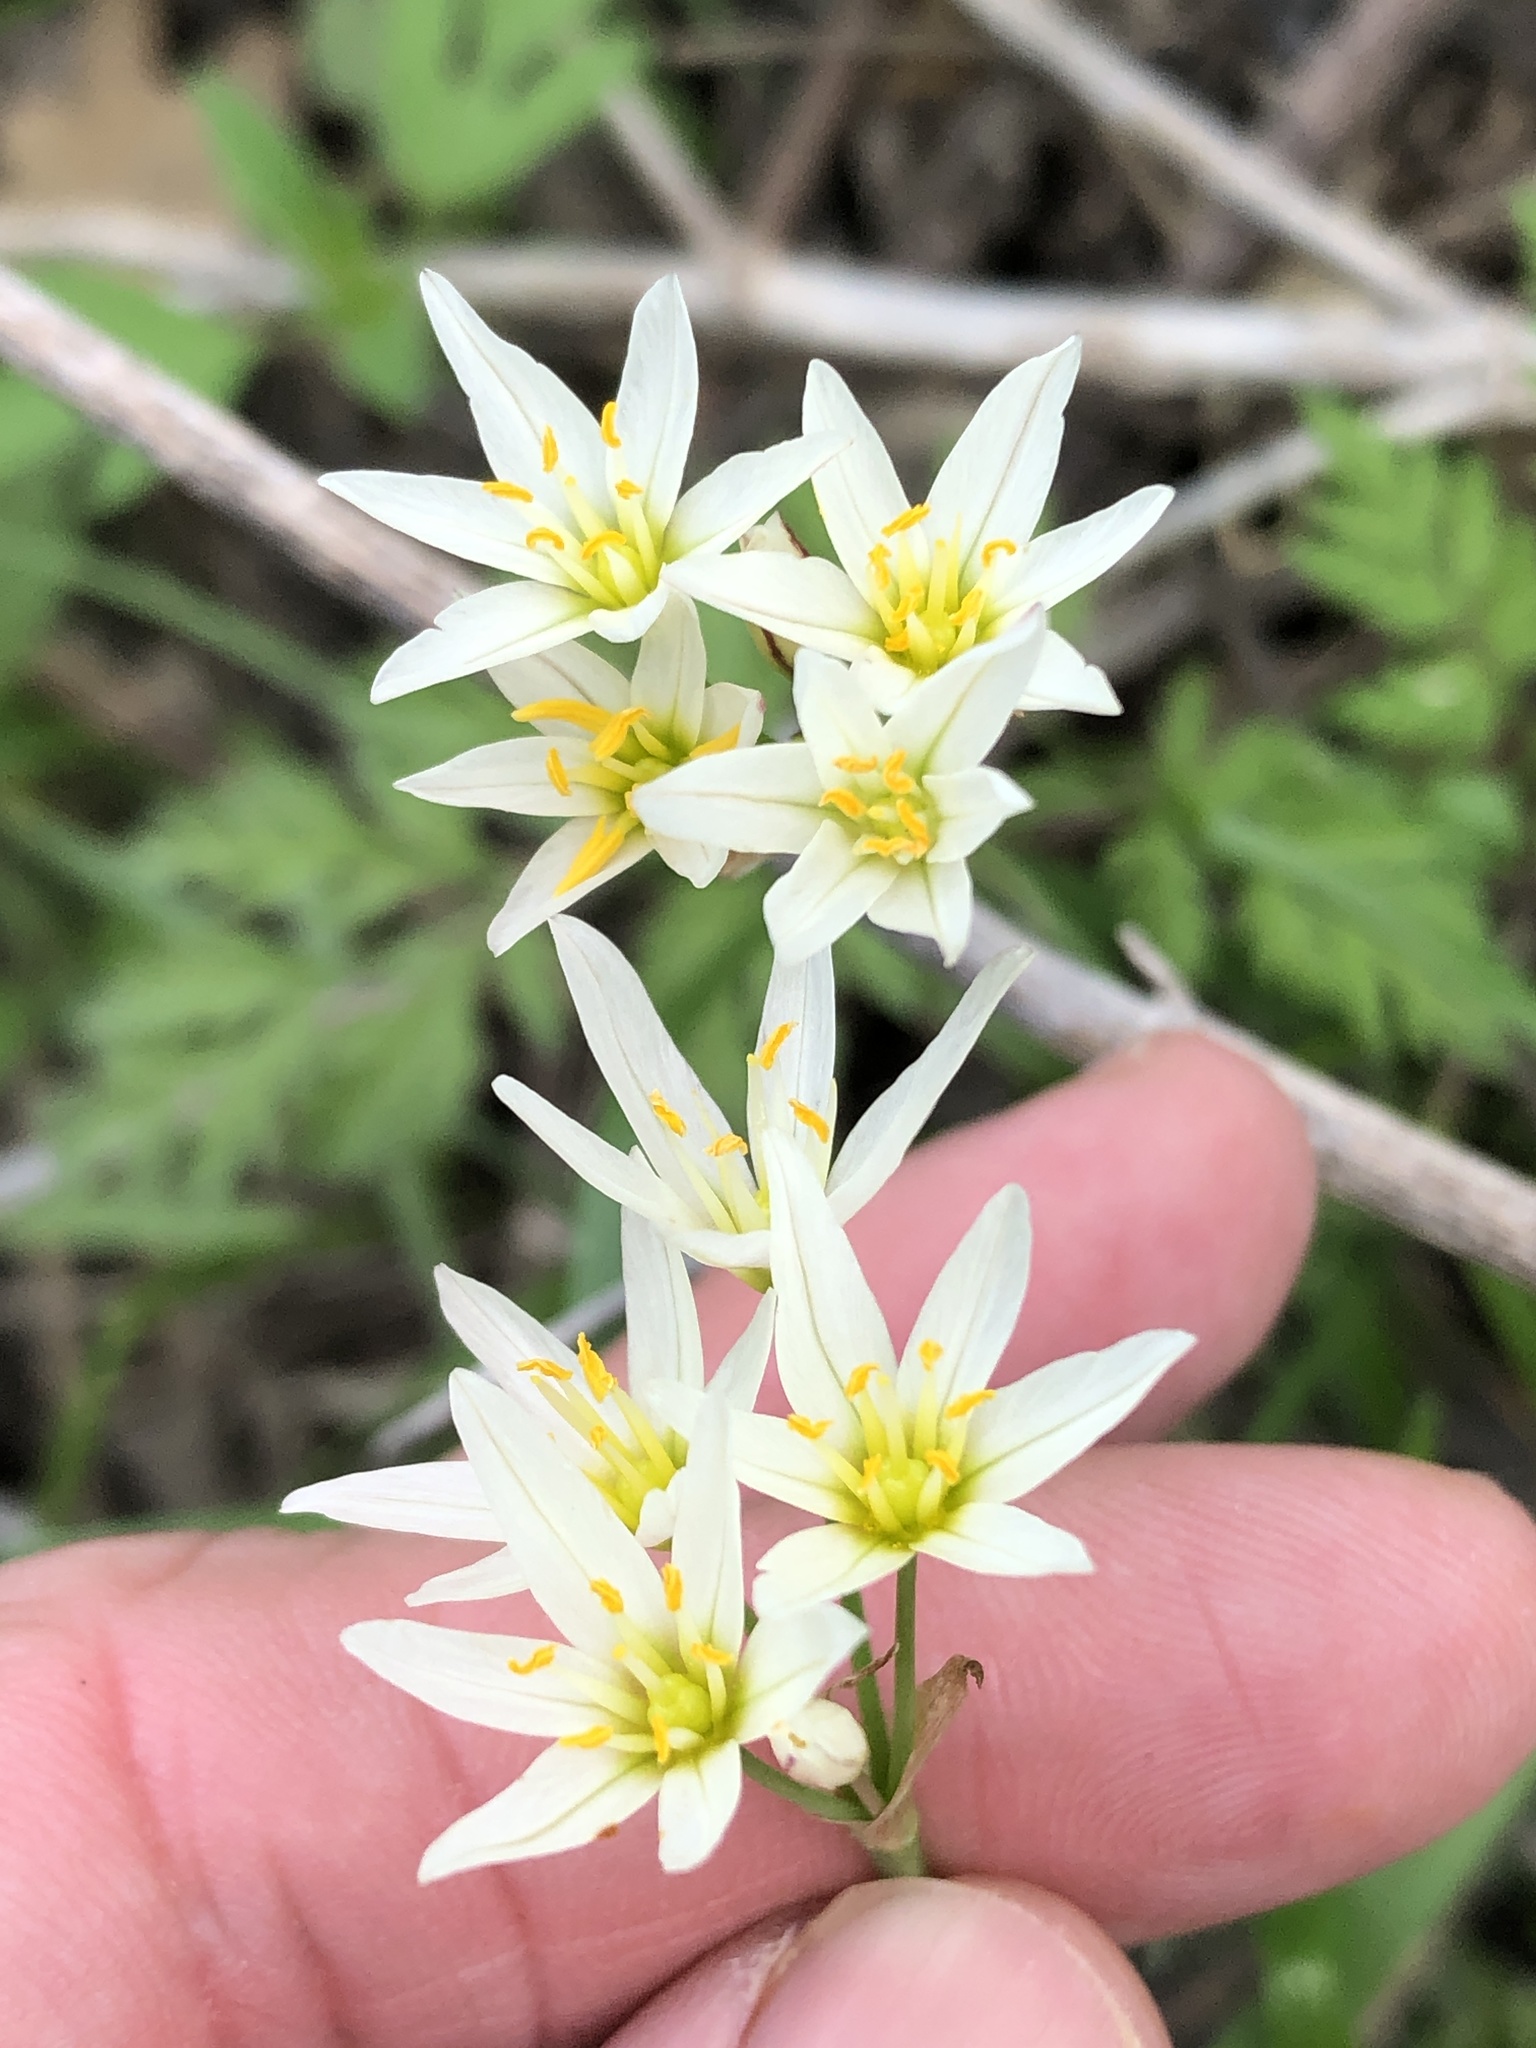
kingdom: Plantae
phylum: Tracheophyta
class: Liliopsida
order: Asparagales
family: Amaryllidaceae
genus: Nothoscordum
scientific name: Nothoscordum bivalve
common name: Crow-poison
